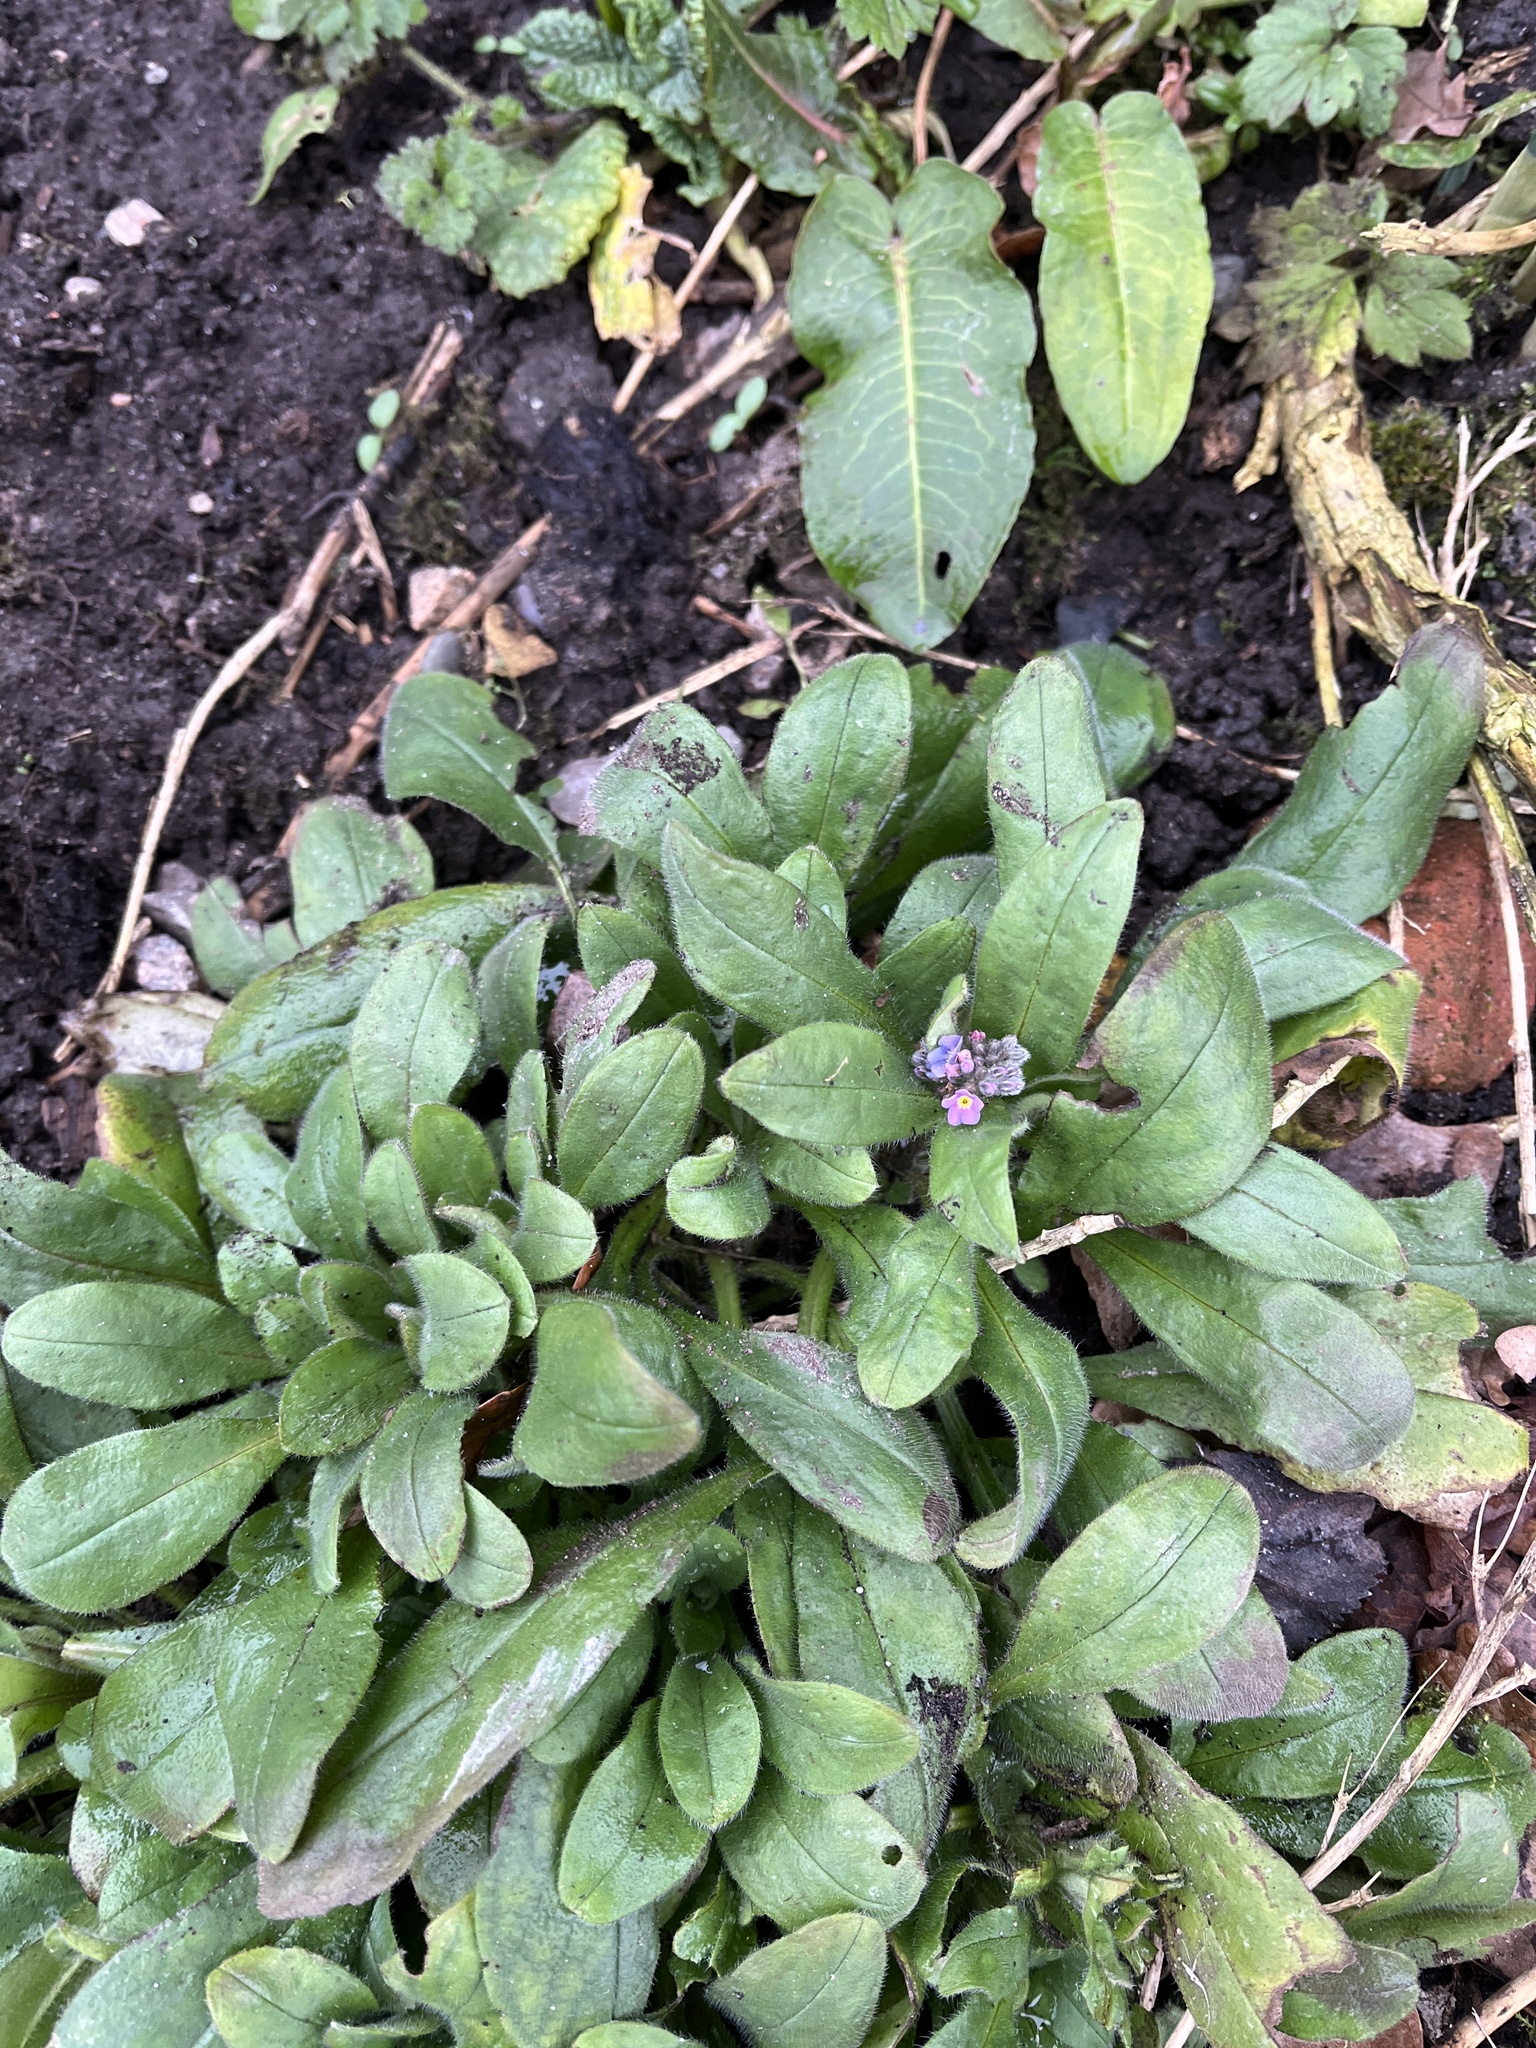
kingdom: Plantae
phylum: Tracheophyta
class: Magnoliopsida
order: Boraginales
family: Boraginaceae
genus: Myosotis
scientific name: Myosotis sylvatica
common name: Wood forget-me-not
